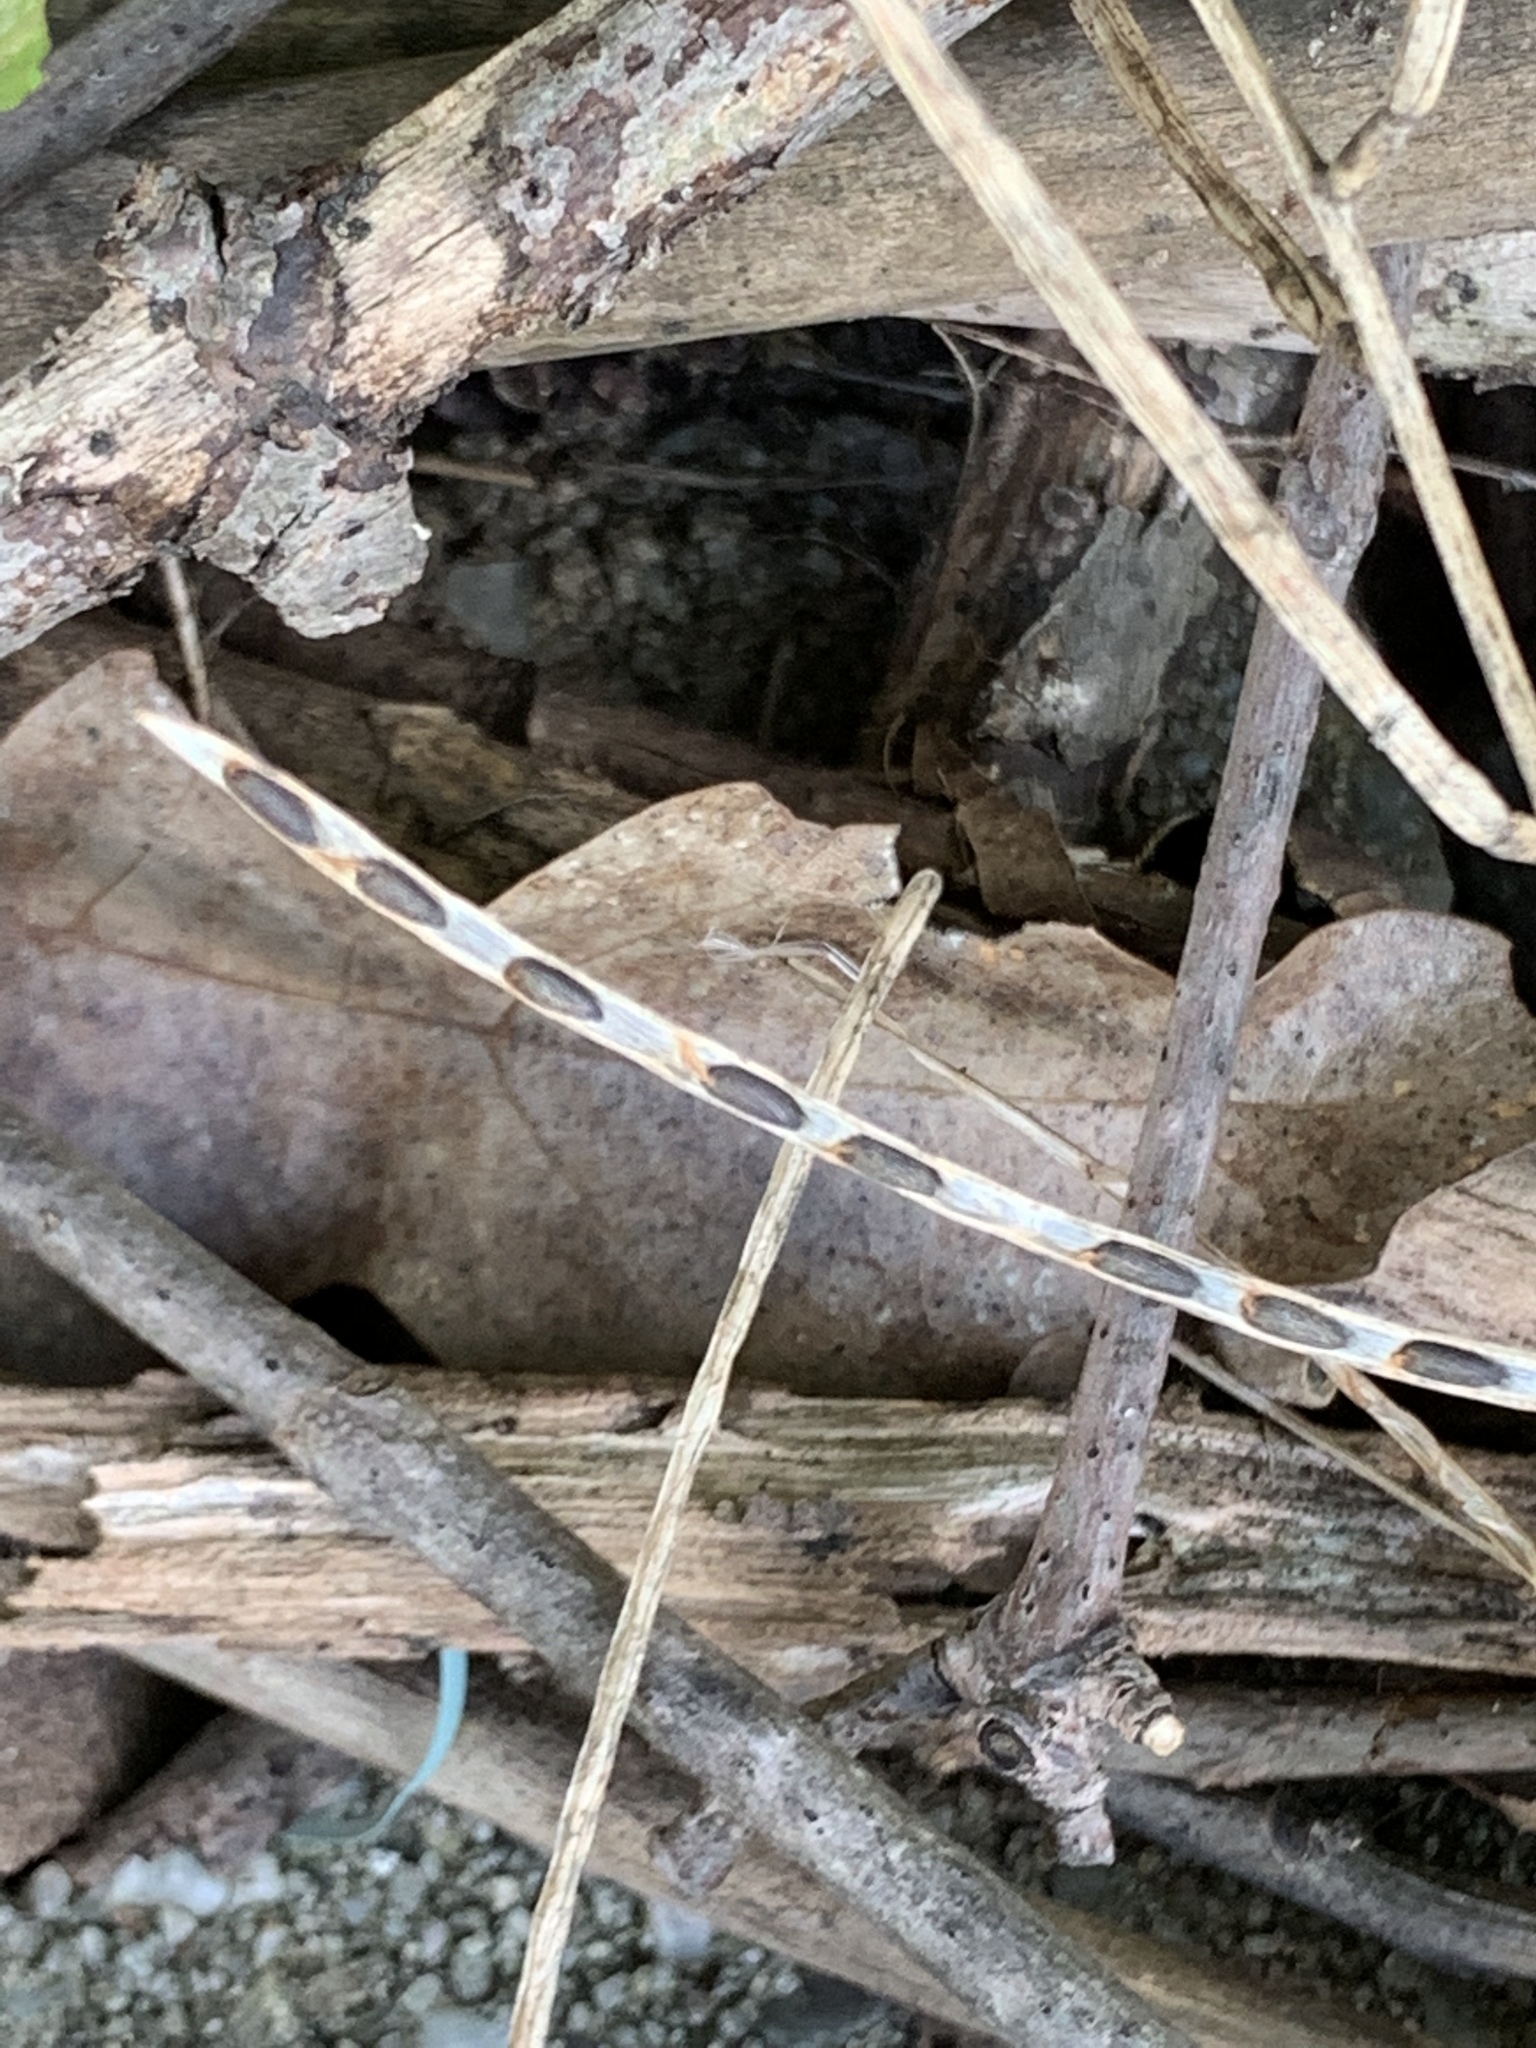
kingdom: Plantae
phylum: Tracheophyta
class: Magnoliopsida
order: Brassicales
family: Brassicaceae
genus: Alliaria
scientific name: Alliaria petiolata
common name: Garlic mustard
